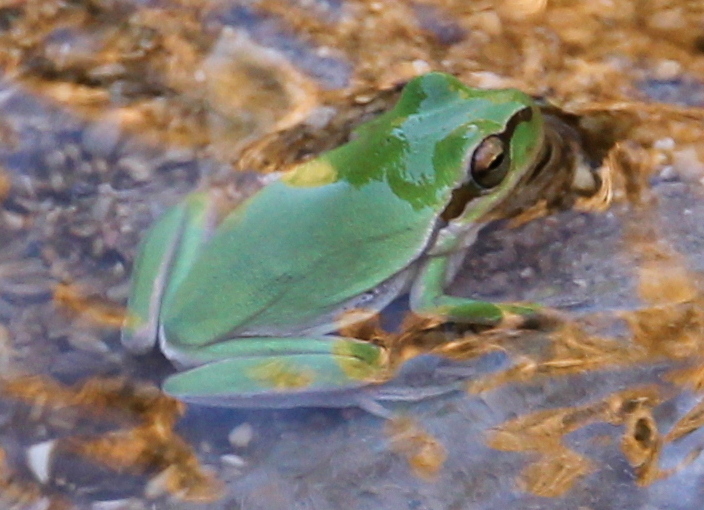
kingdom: Animalia
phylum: Chordata
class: Amphibia
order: Anura
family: Hylidae
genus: Hyla
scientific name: Hyla savignyi
